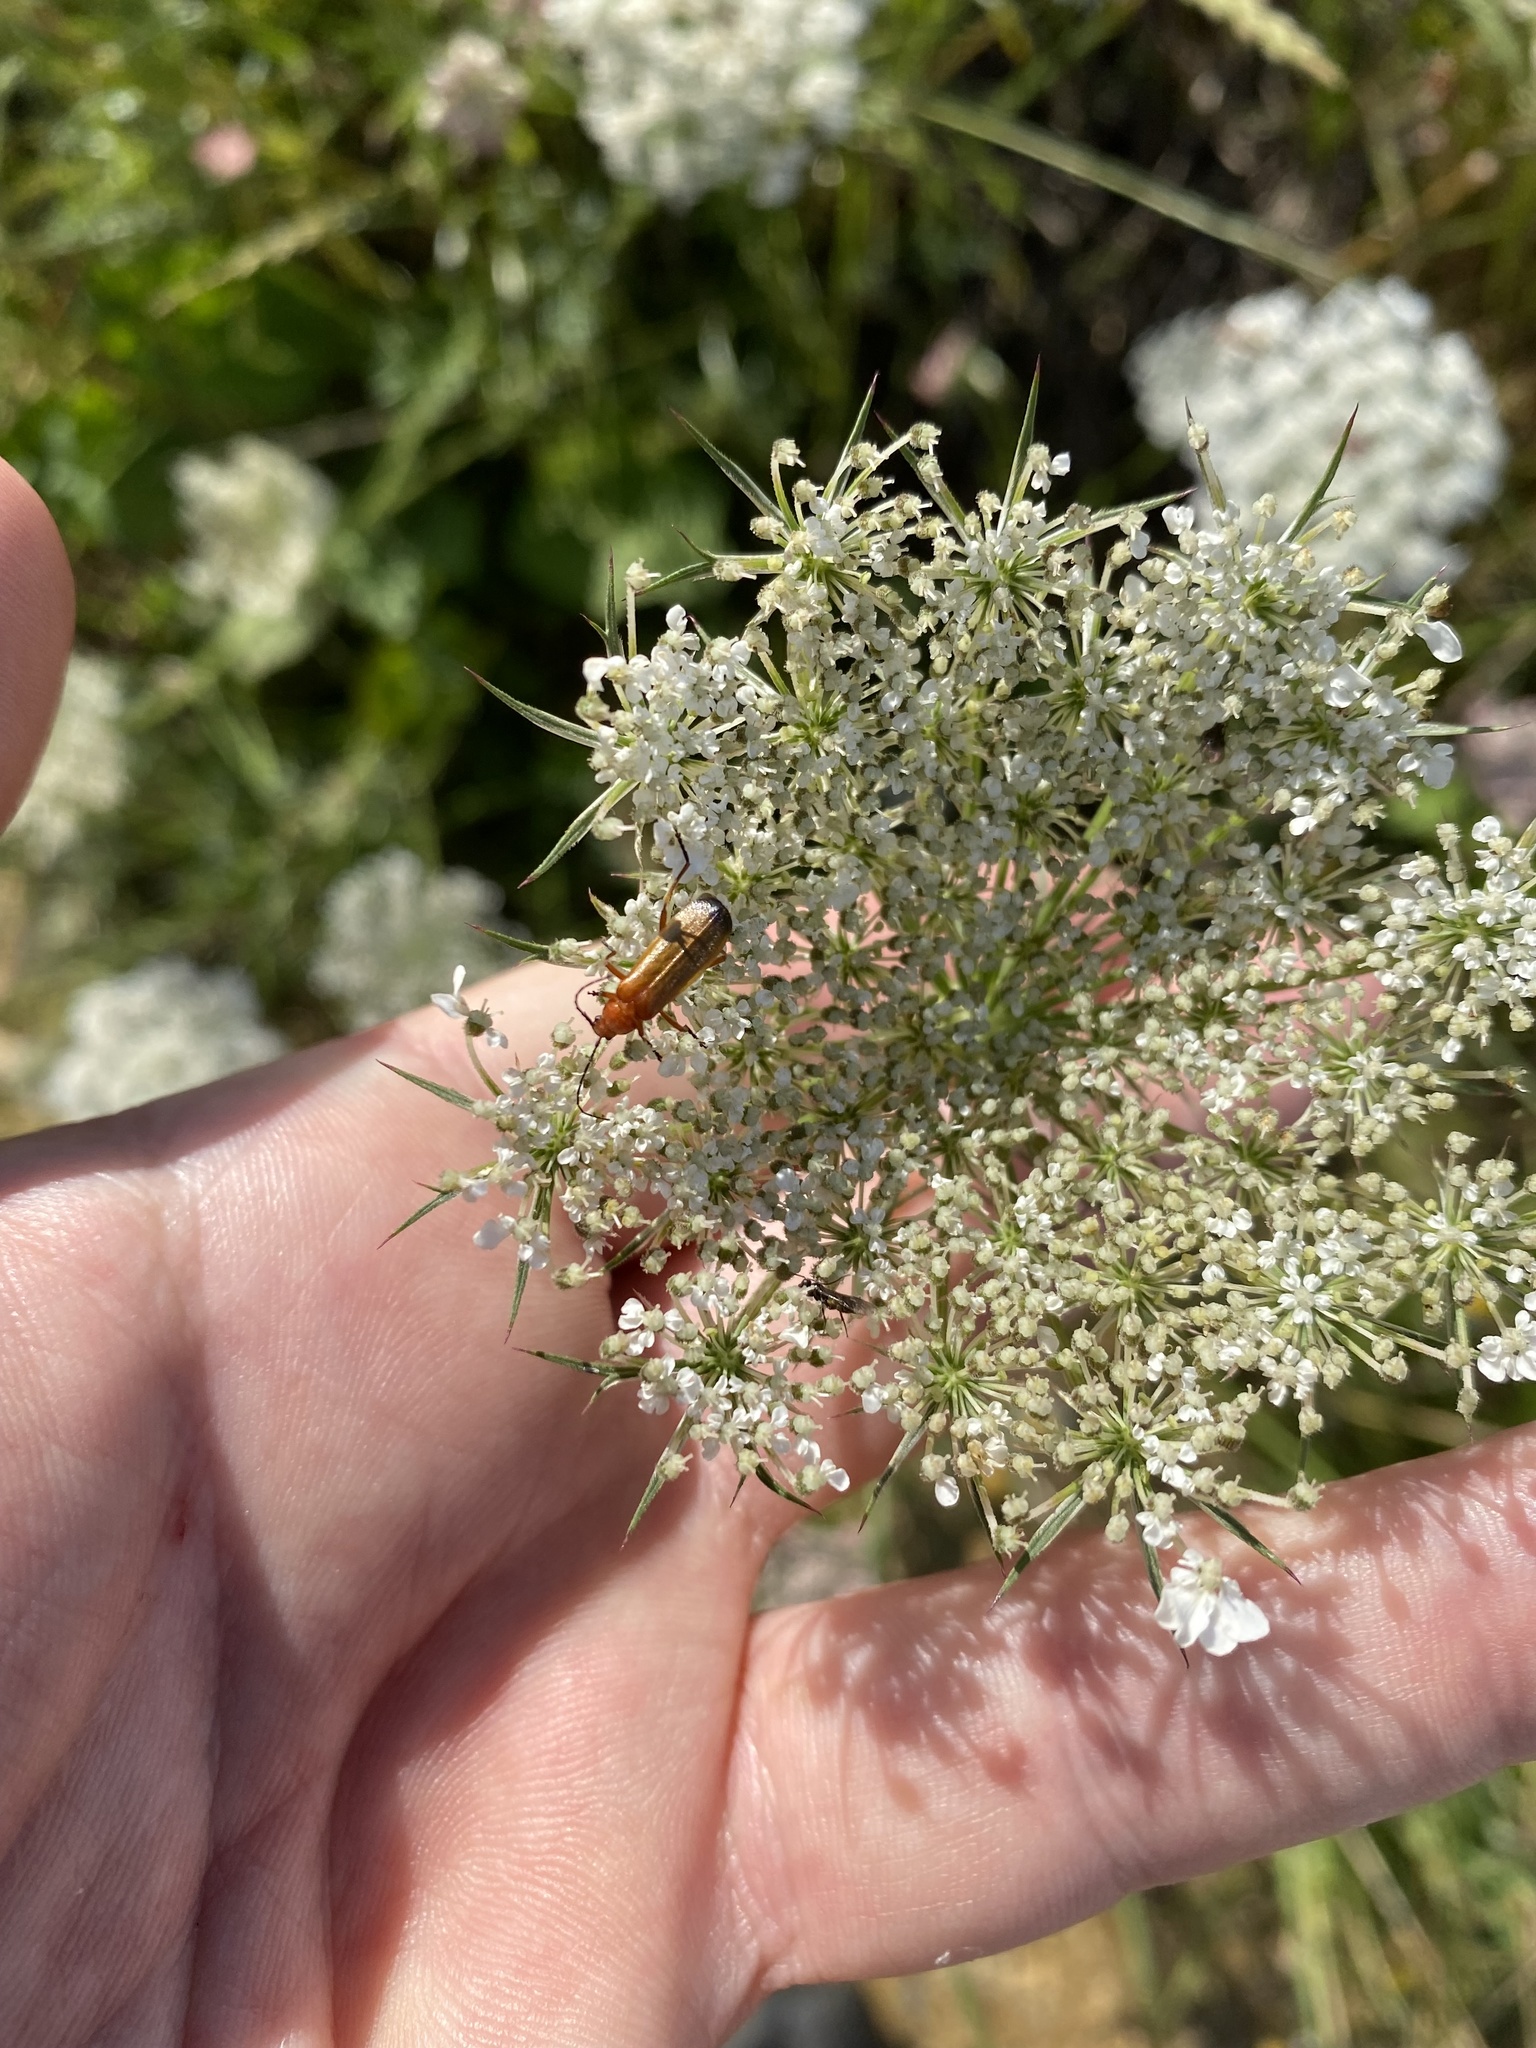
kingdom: Animalia
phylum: Arthropoda
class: Insecta
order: Coleoptera
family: Cantharidae
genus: Rhagonycha
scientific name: Rhagonycha fulva
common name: Common red soldier beetle
